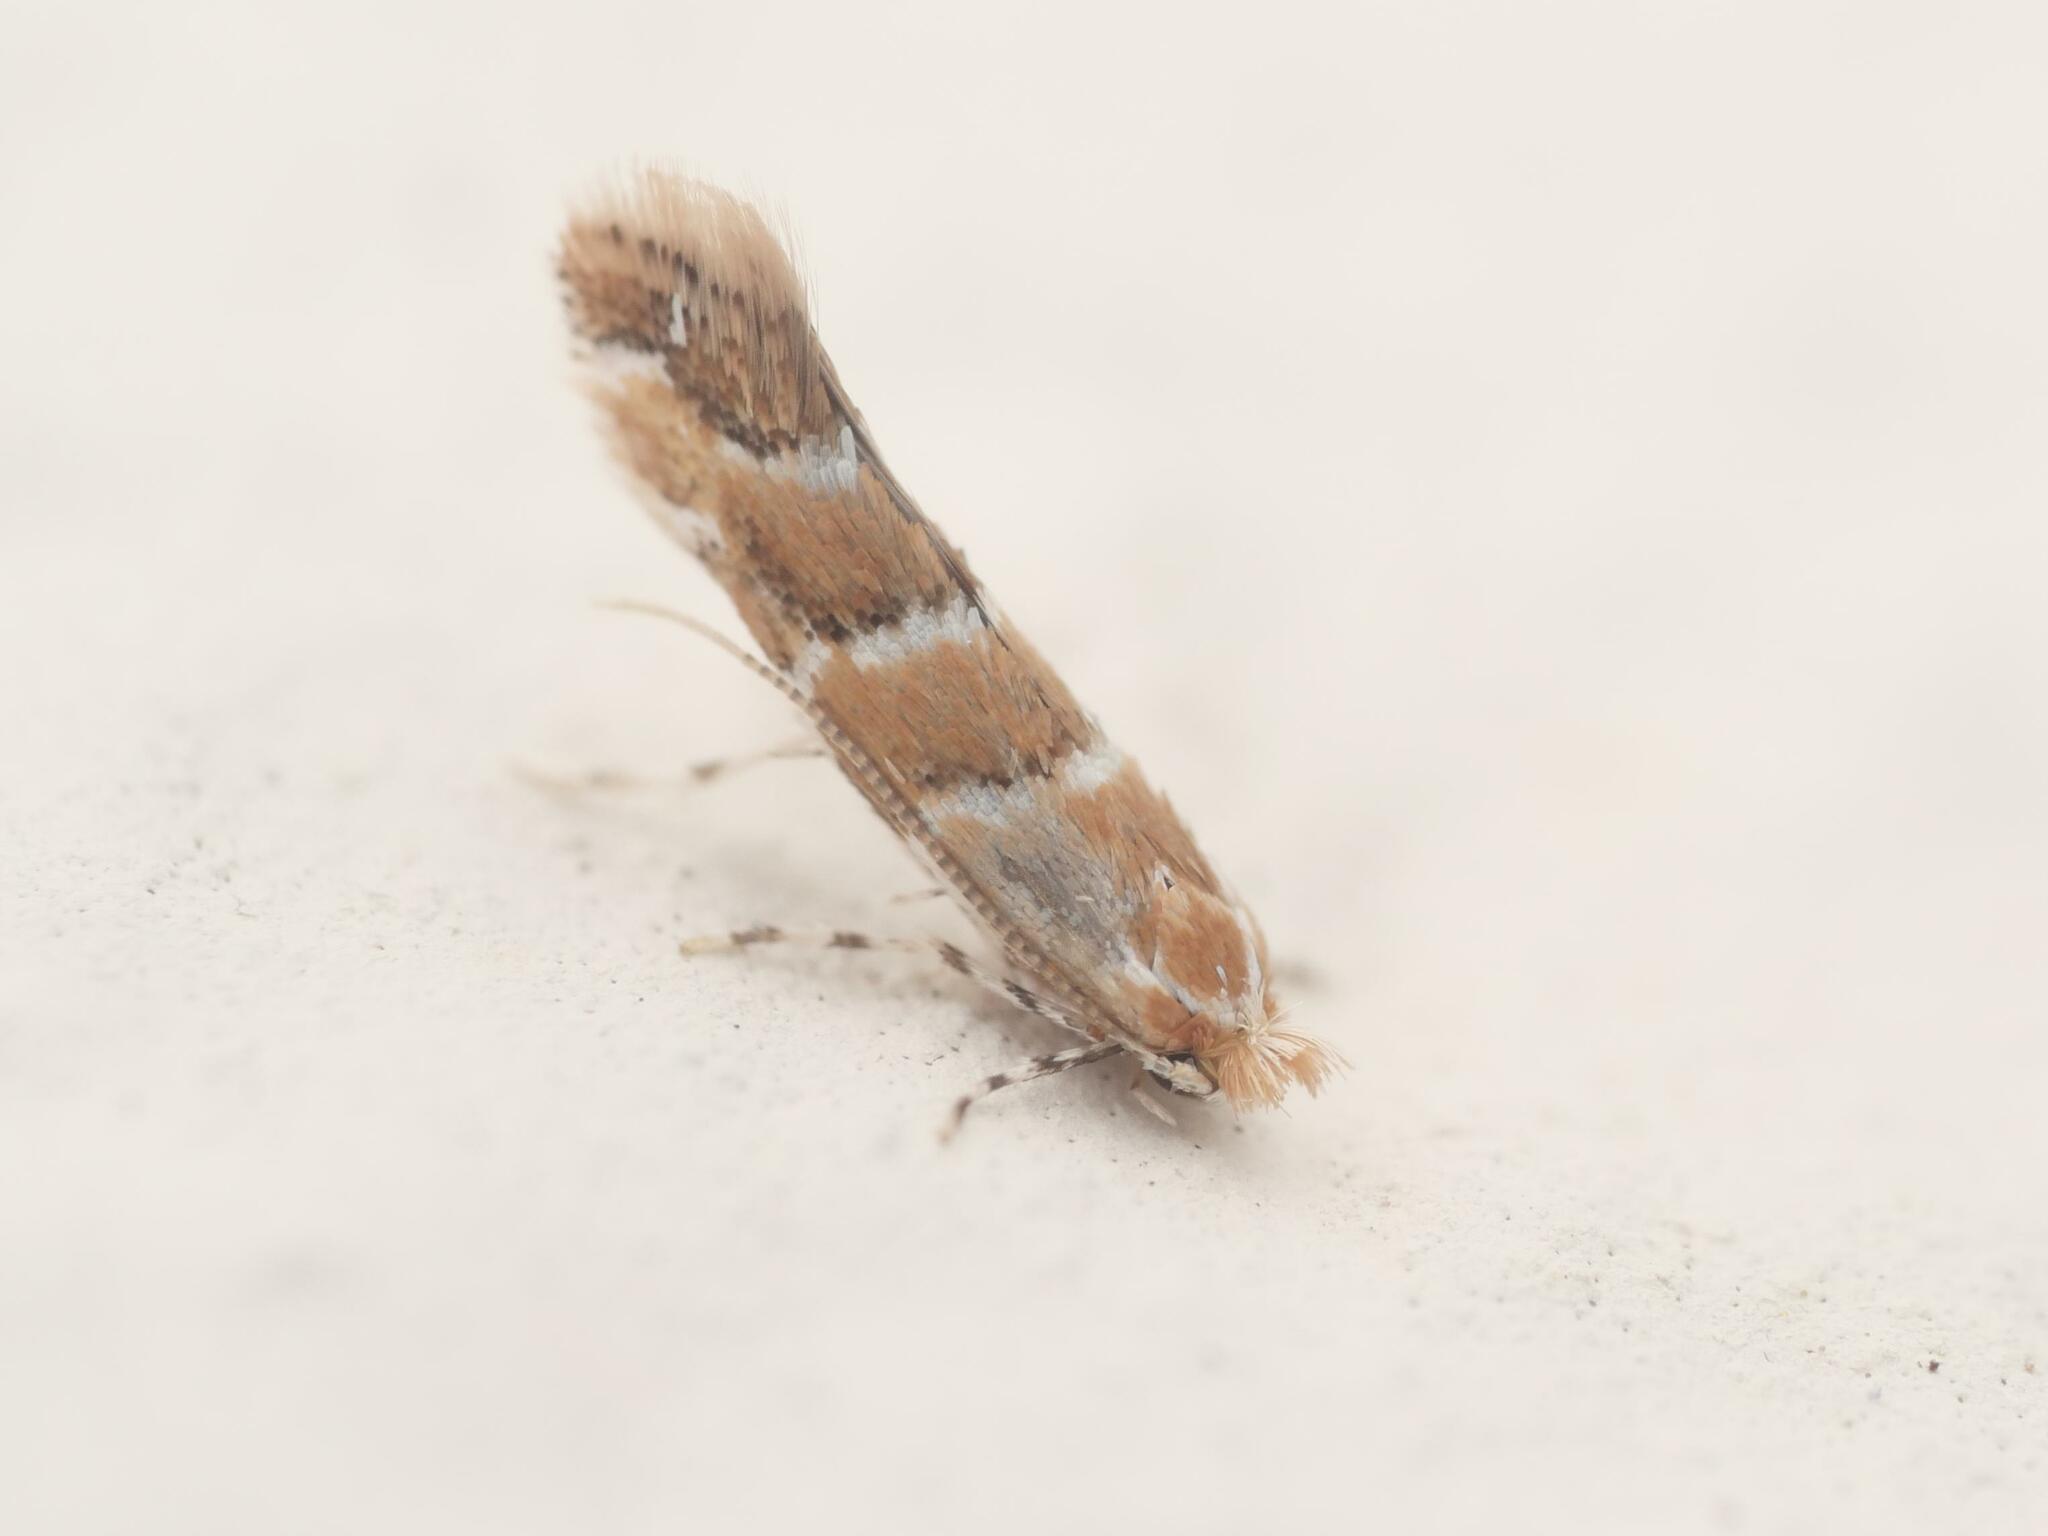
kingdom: Animalia
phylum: Arthropoda
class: Insecta
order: Lepidoptera
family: Gracillariidae
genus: Cameraria
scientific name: Cameraria ohridella
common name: Horse-chestnut leaf-miner
